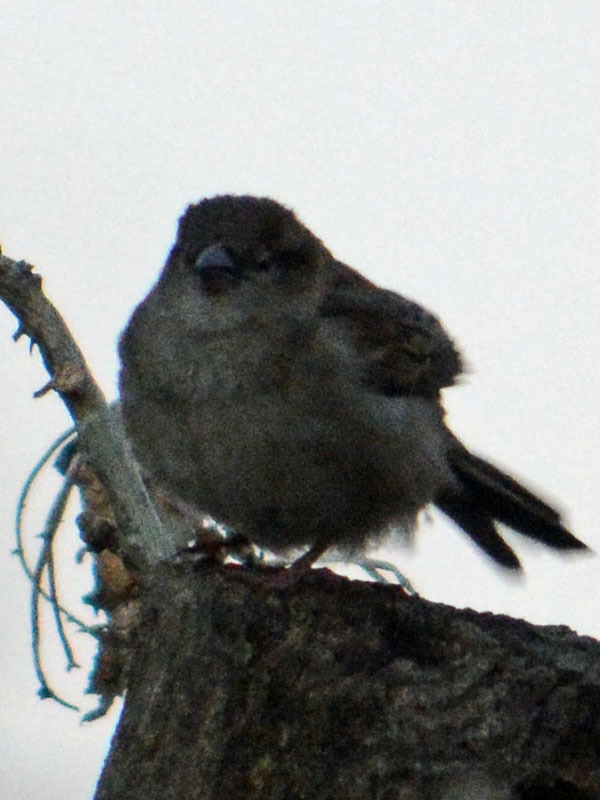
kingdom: Animalia
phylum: Chordata
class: Aves
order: Passeriformes
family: Passeridae
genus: Passer
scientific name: Passer domesticus
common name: House sparrow
